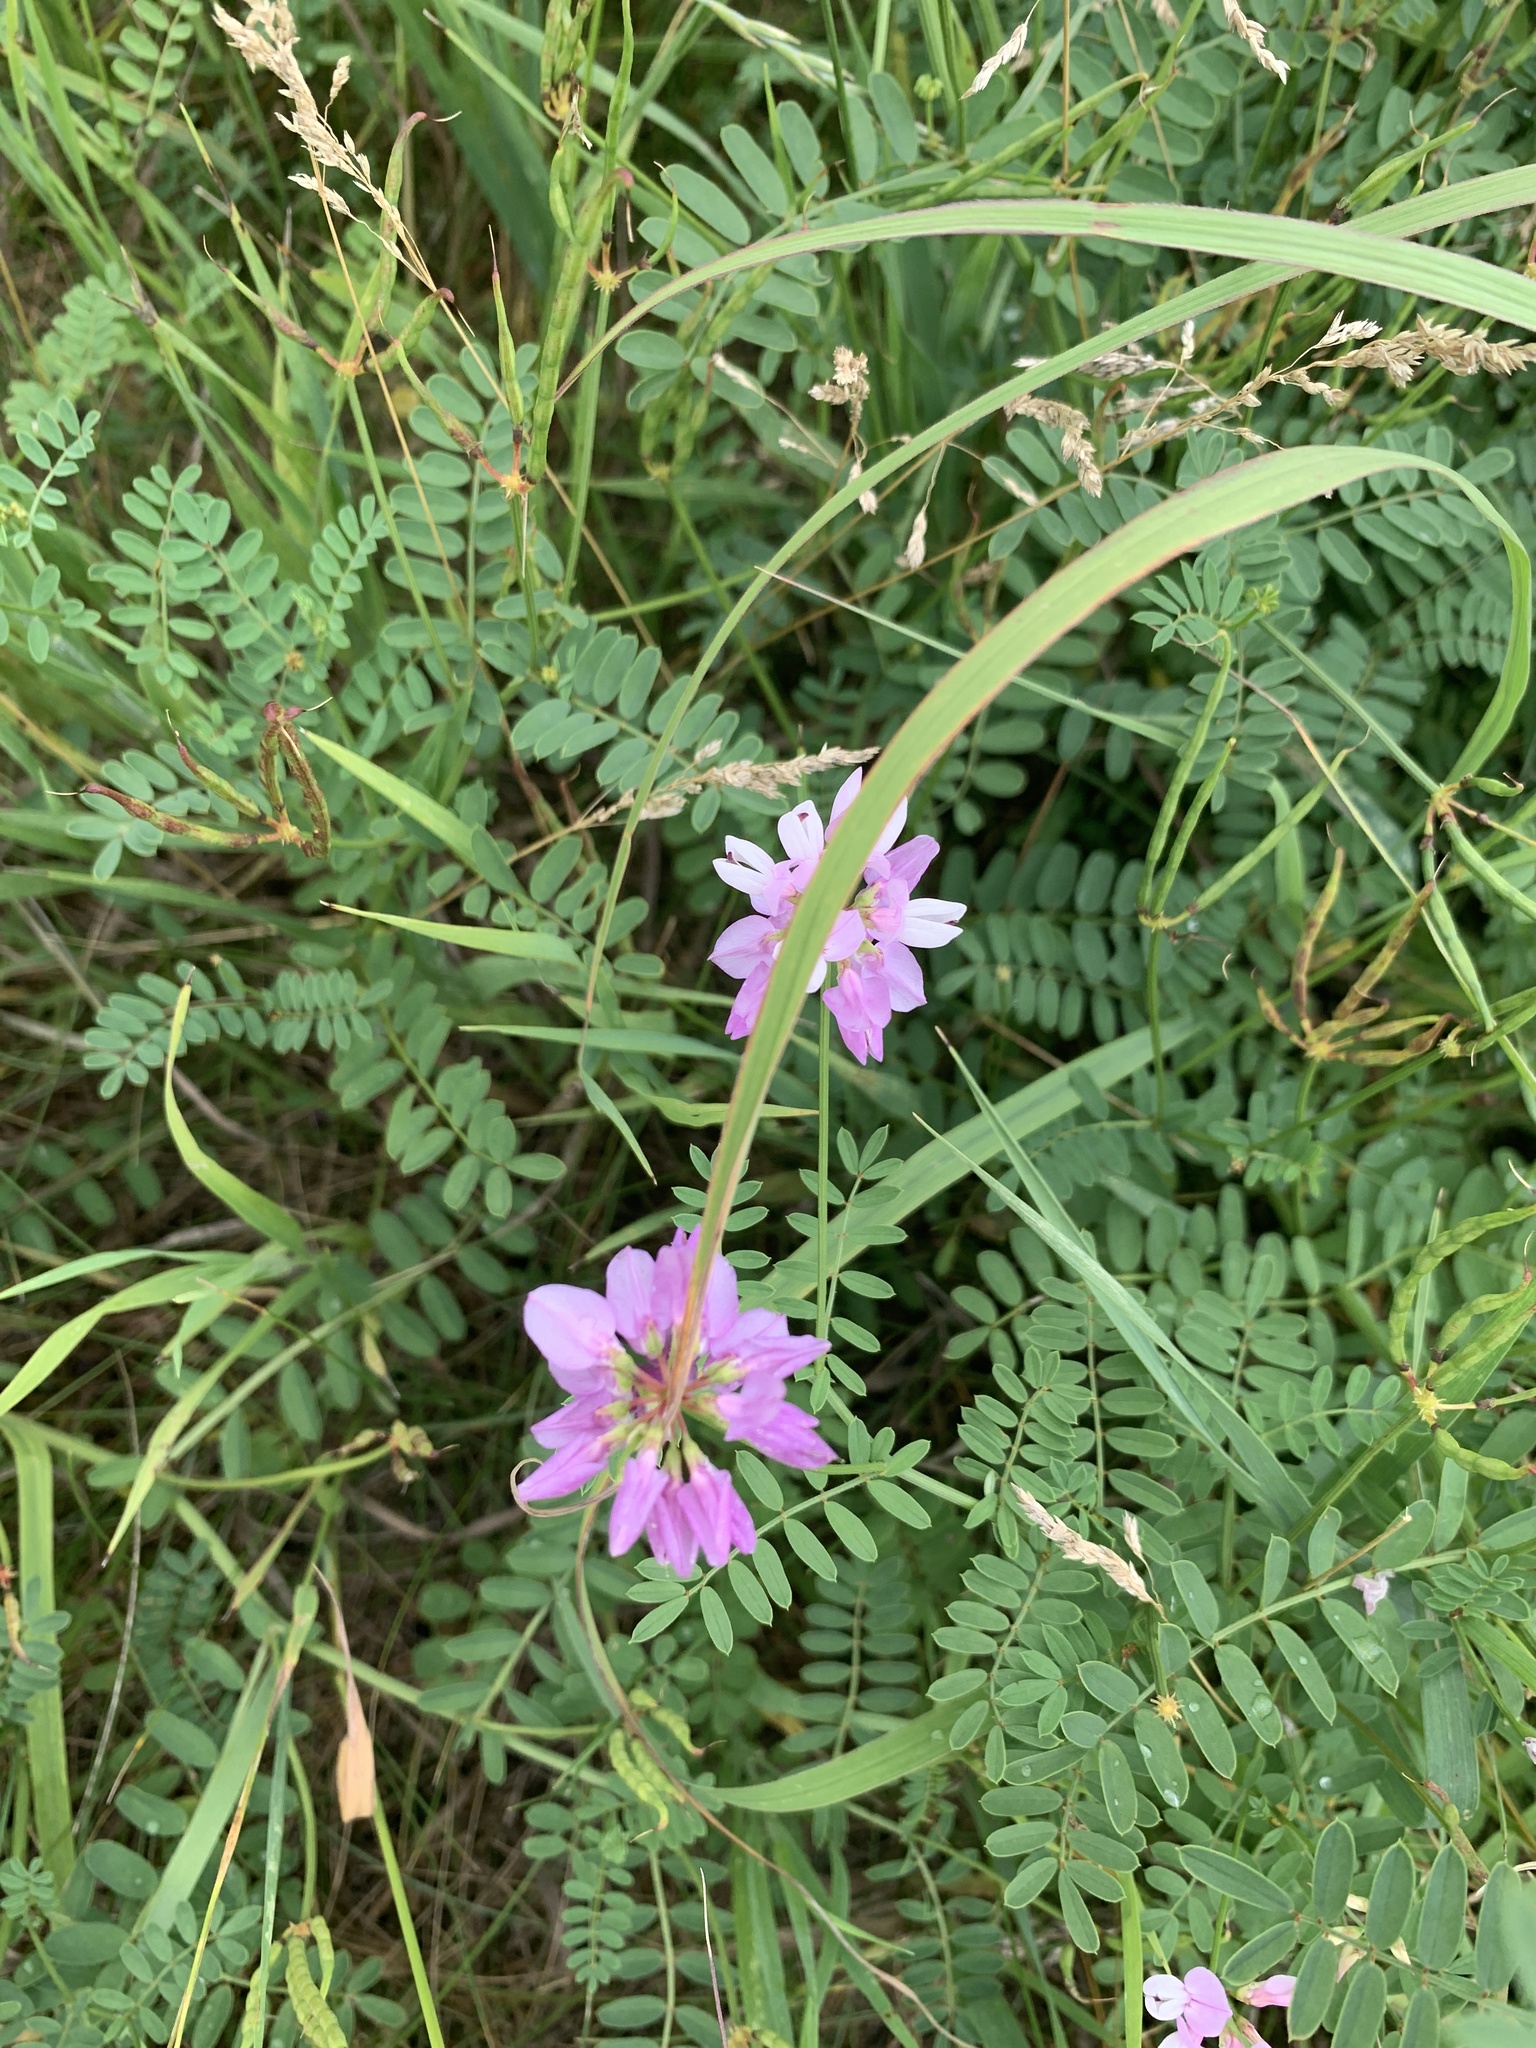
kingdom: Plantae
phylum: Tracheophyta
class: Magnoliopsida
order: Fabales
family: Fabaceae
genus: Coronilla
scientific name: Coronilla varia
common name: Crownvetch
